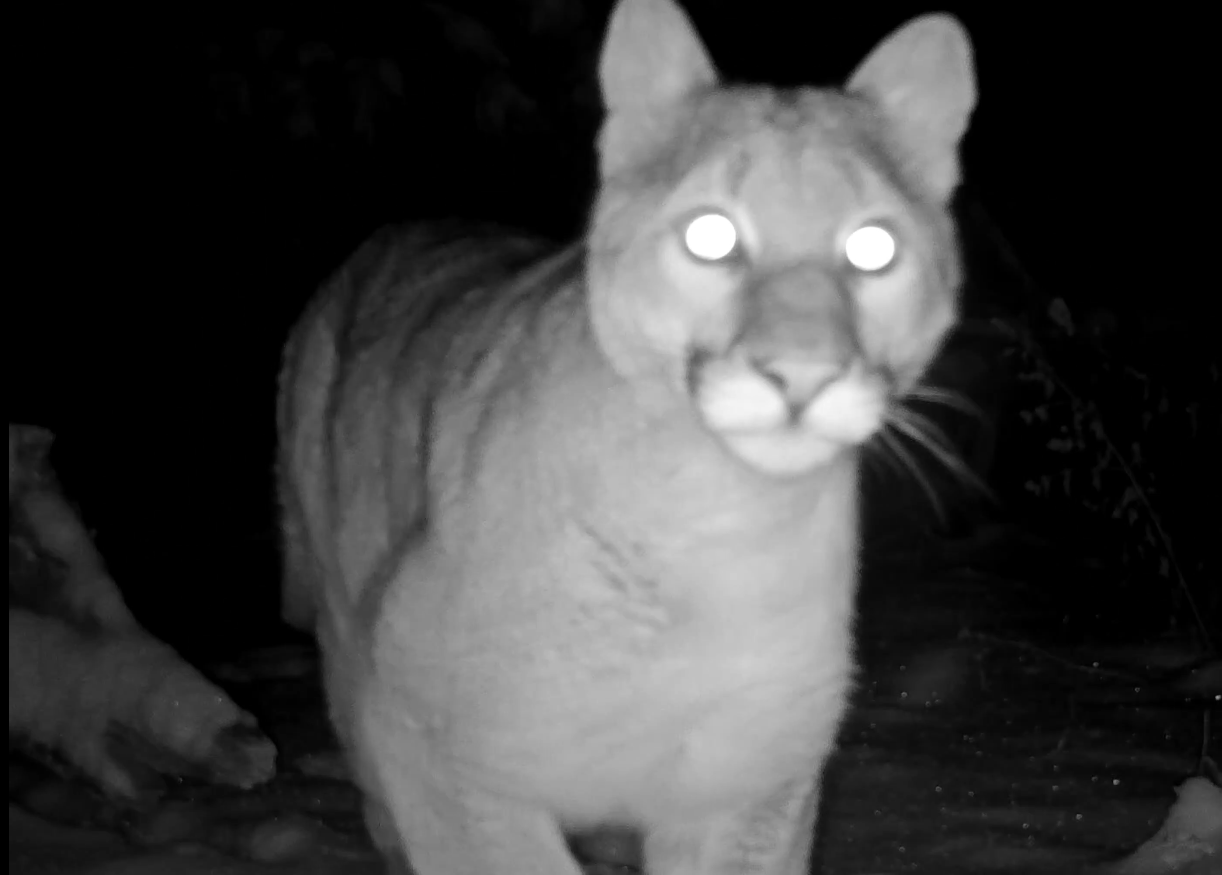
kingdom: Animalia
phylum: Chordata
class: Mammalia
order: Carnivora
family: Felidae
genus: Puma
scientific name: Puma concolor
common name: Puma
